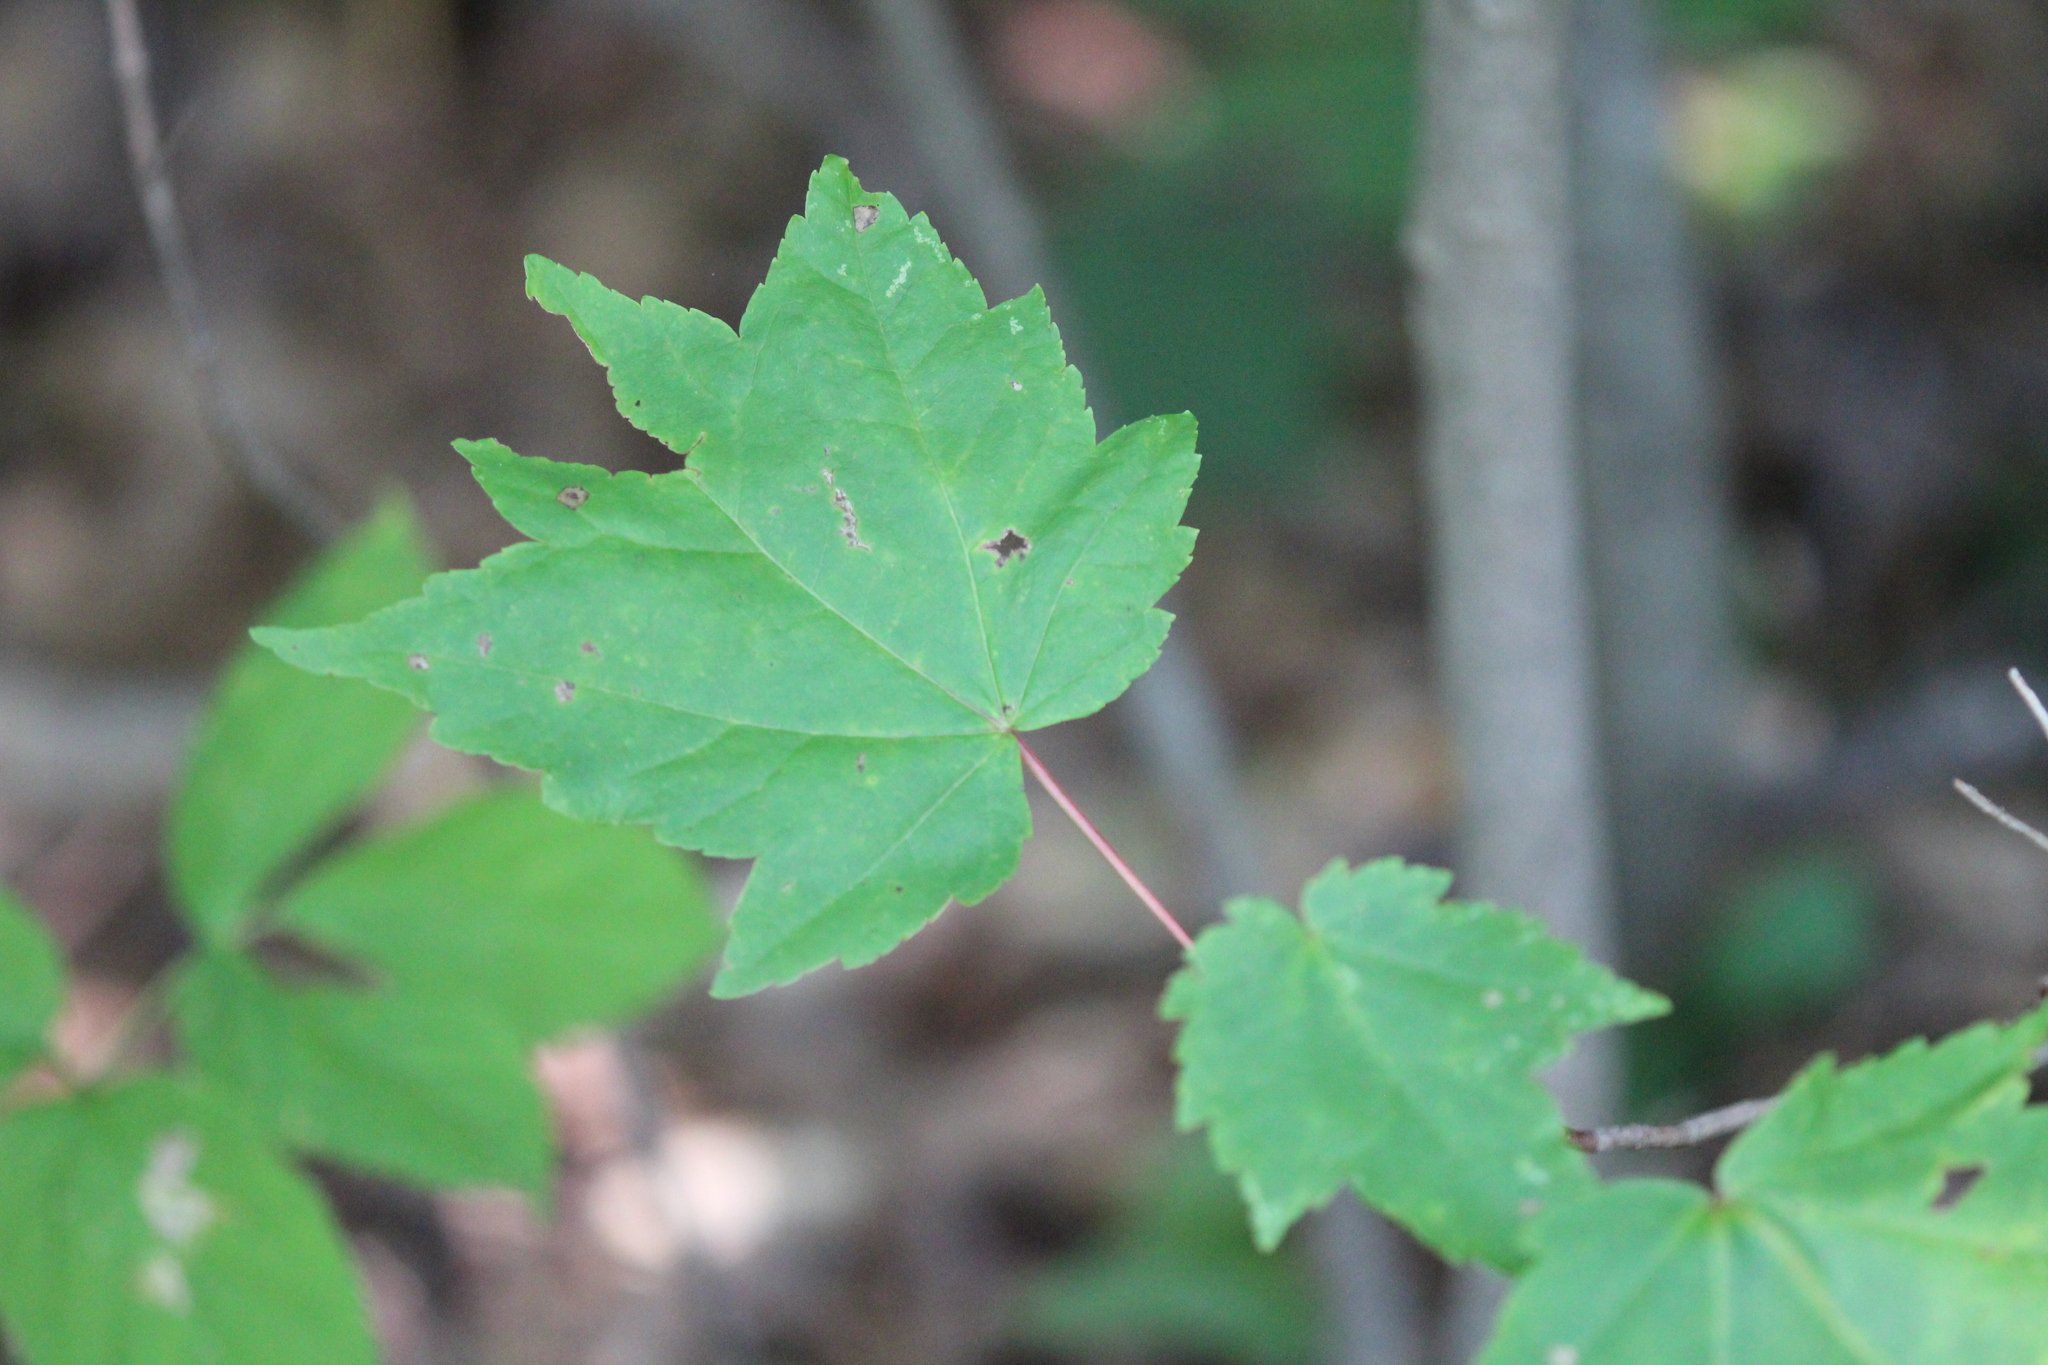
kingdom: Plantae
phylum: Tracheophyta
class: Magnoliopsida
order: Sapindales
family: Sapindaceae
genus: Acer
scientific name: Acer rubrum
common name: Red maple
